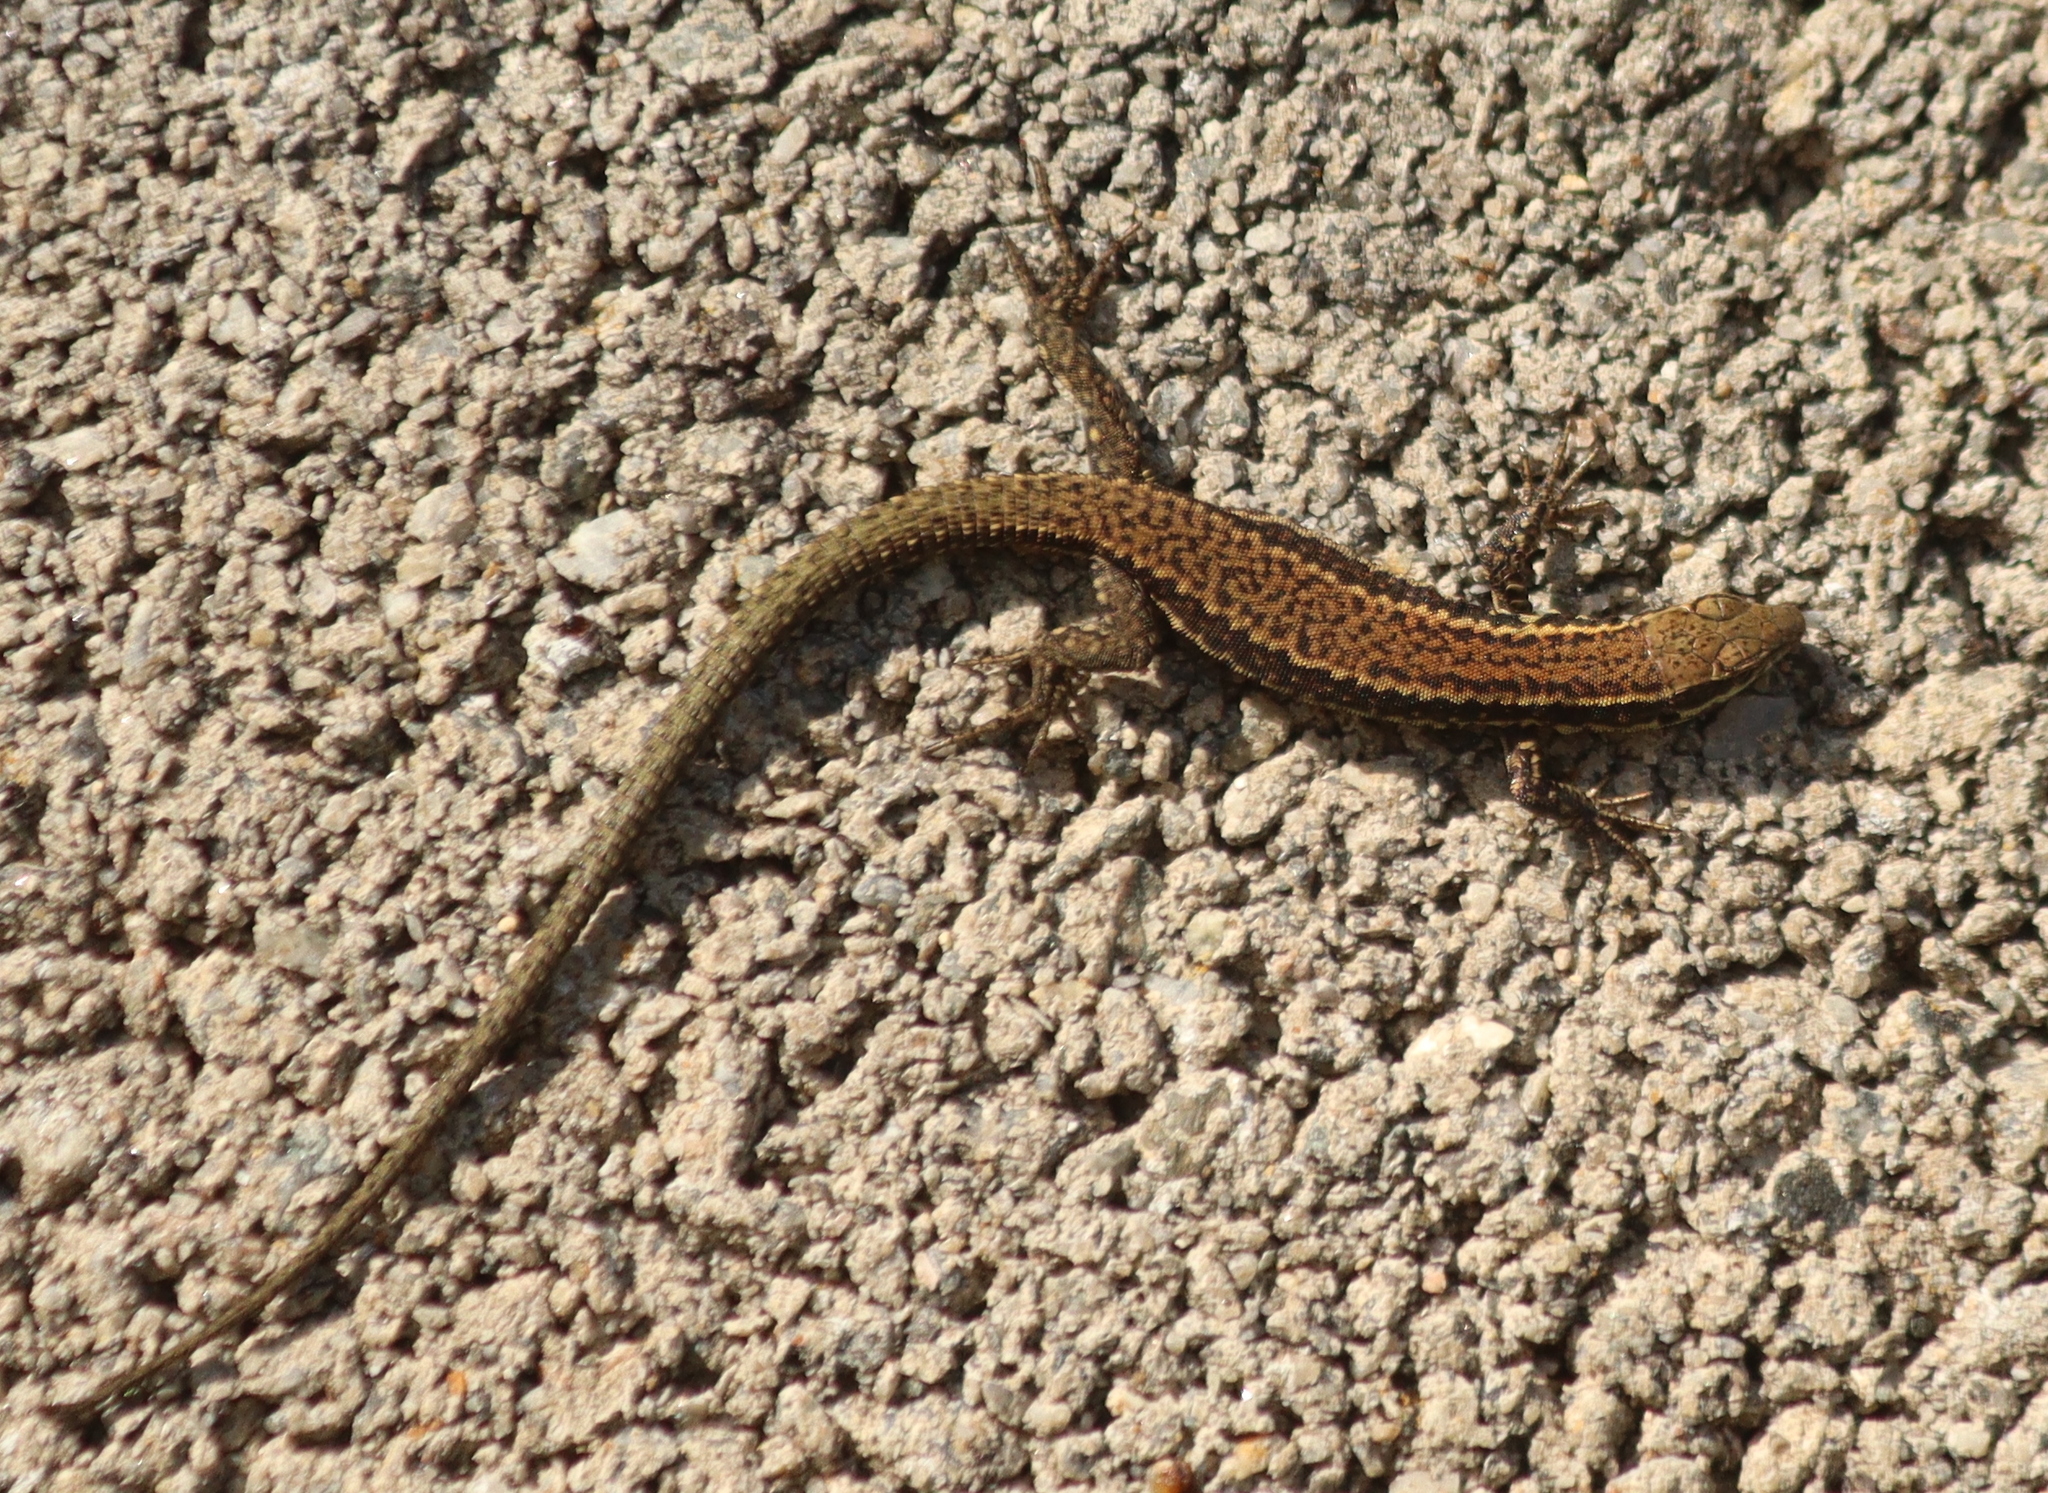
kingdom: Animalia
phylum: Chordata
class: Squamata
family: Lacertidae
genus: Podarcis
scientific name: Podarcis muralis
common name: Common wall lizard
